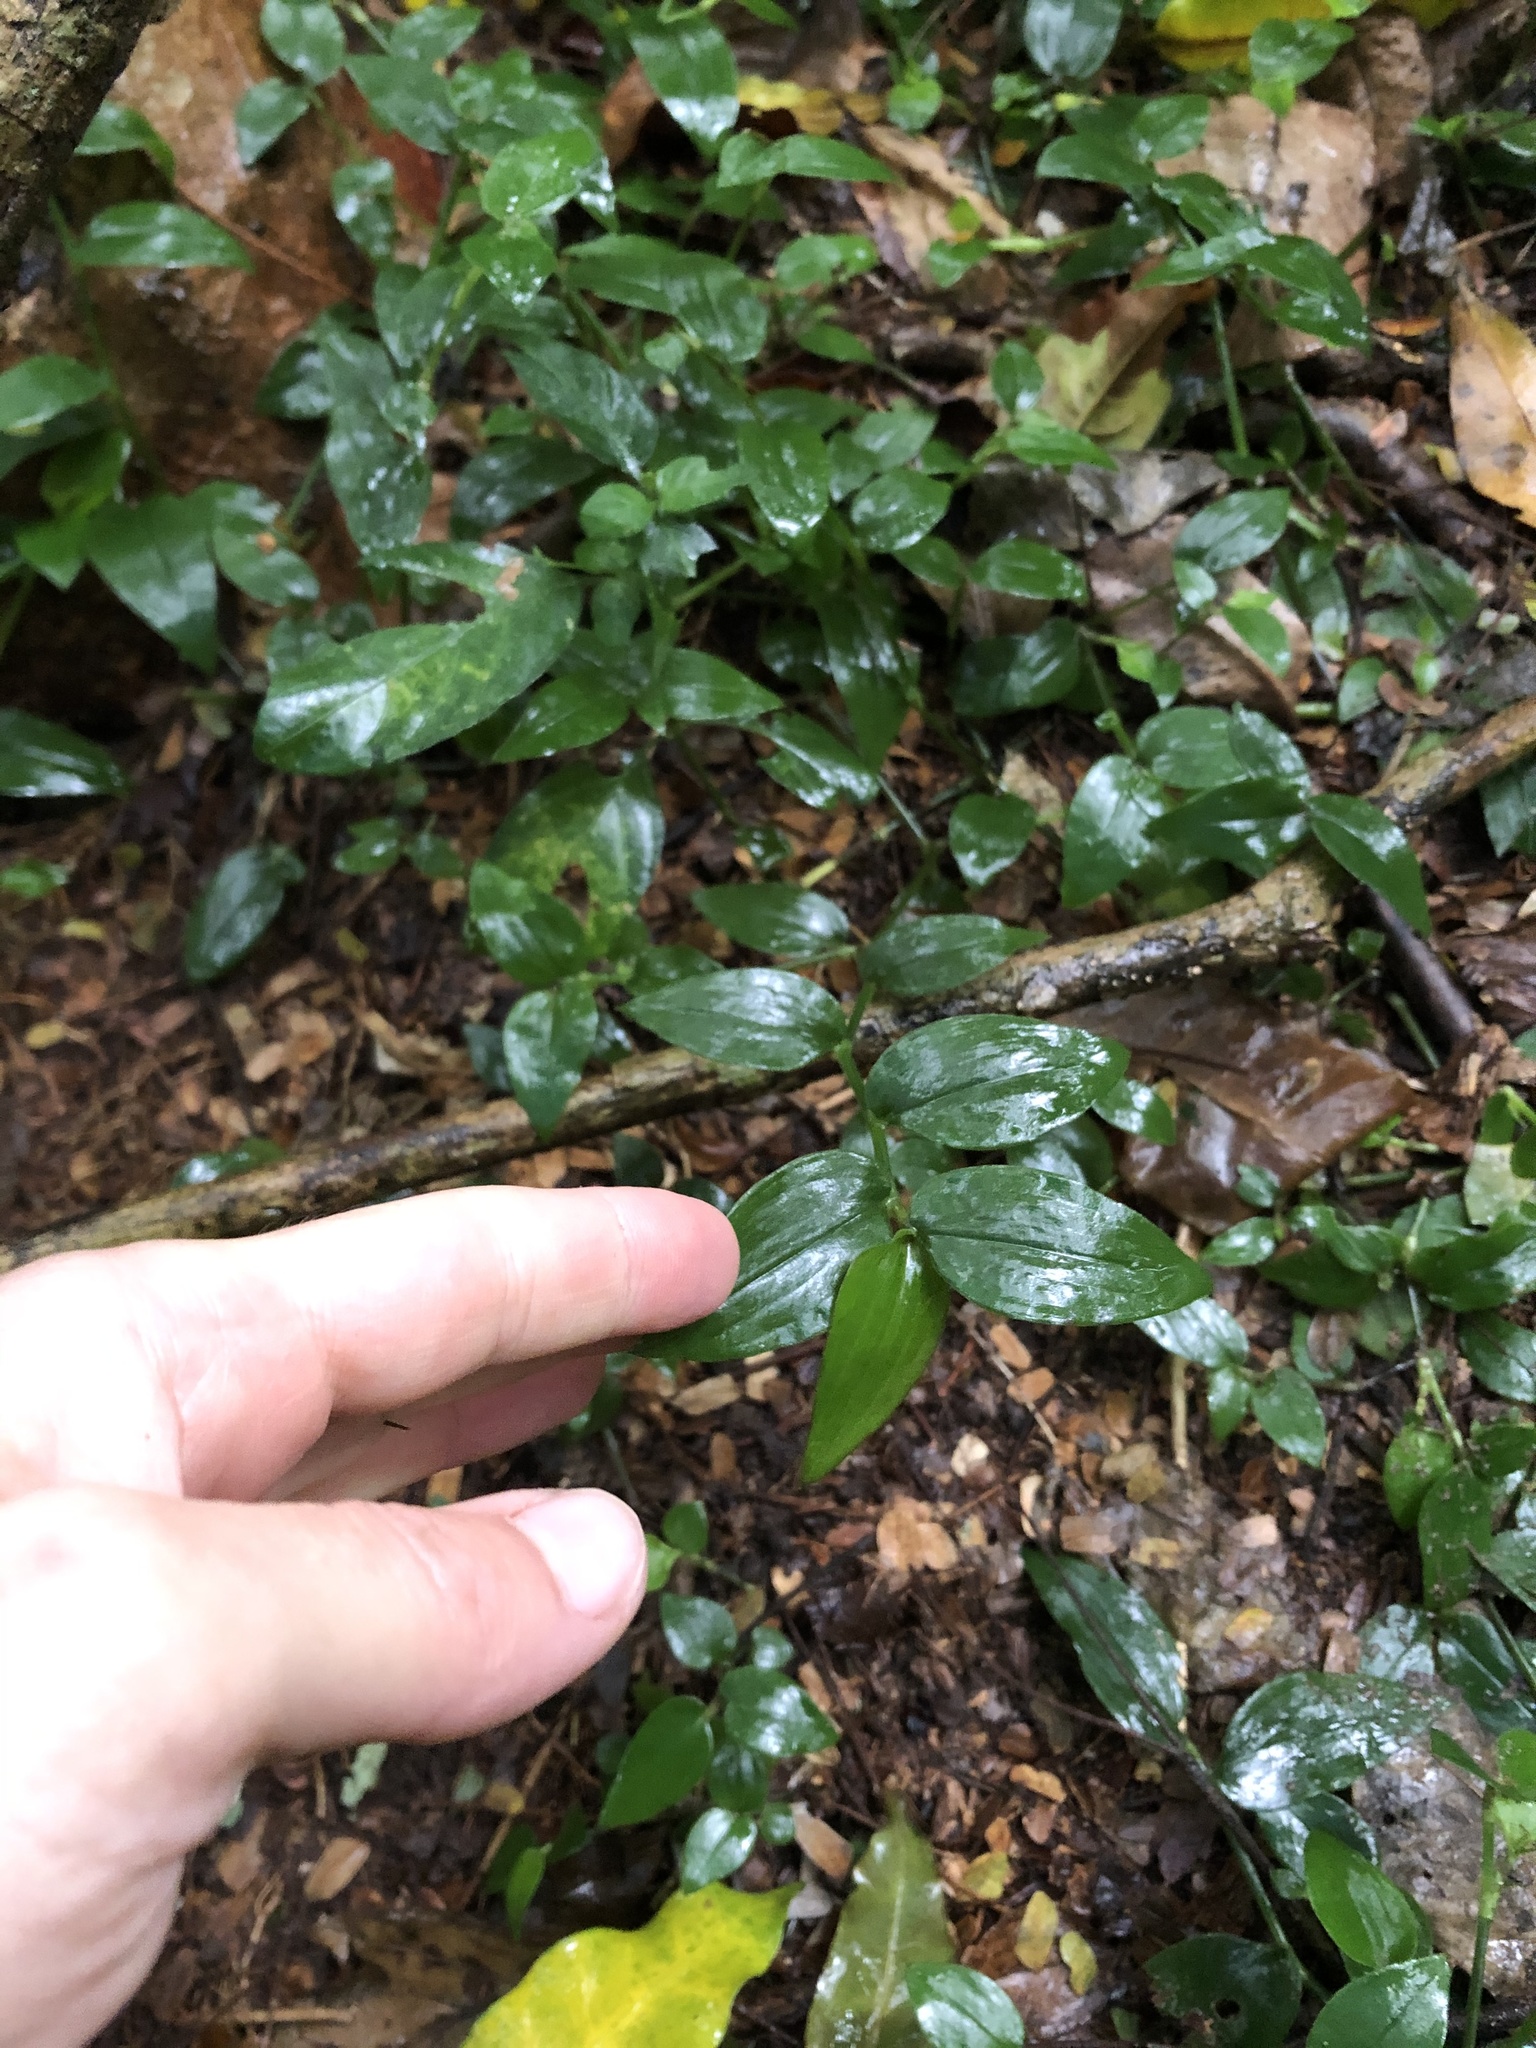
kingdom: Plantae
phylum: Tracheophyta
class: Liliopsida
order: Commelinales
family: Commelinaceae
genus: Tradescantia
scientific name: Tradescantia fluminensis
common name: Wandering-jew
